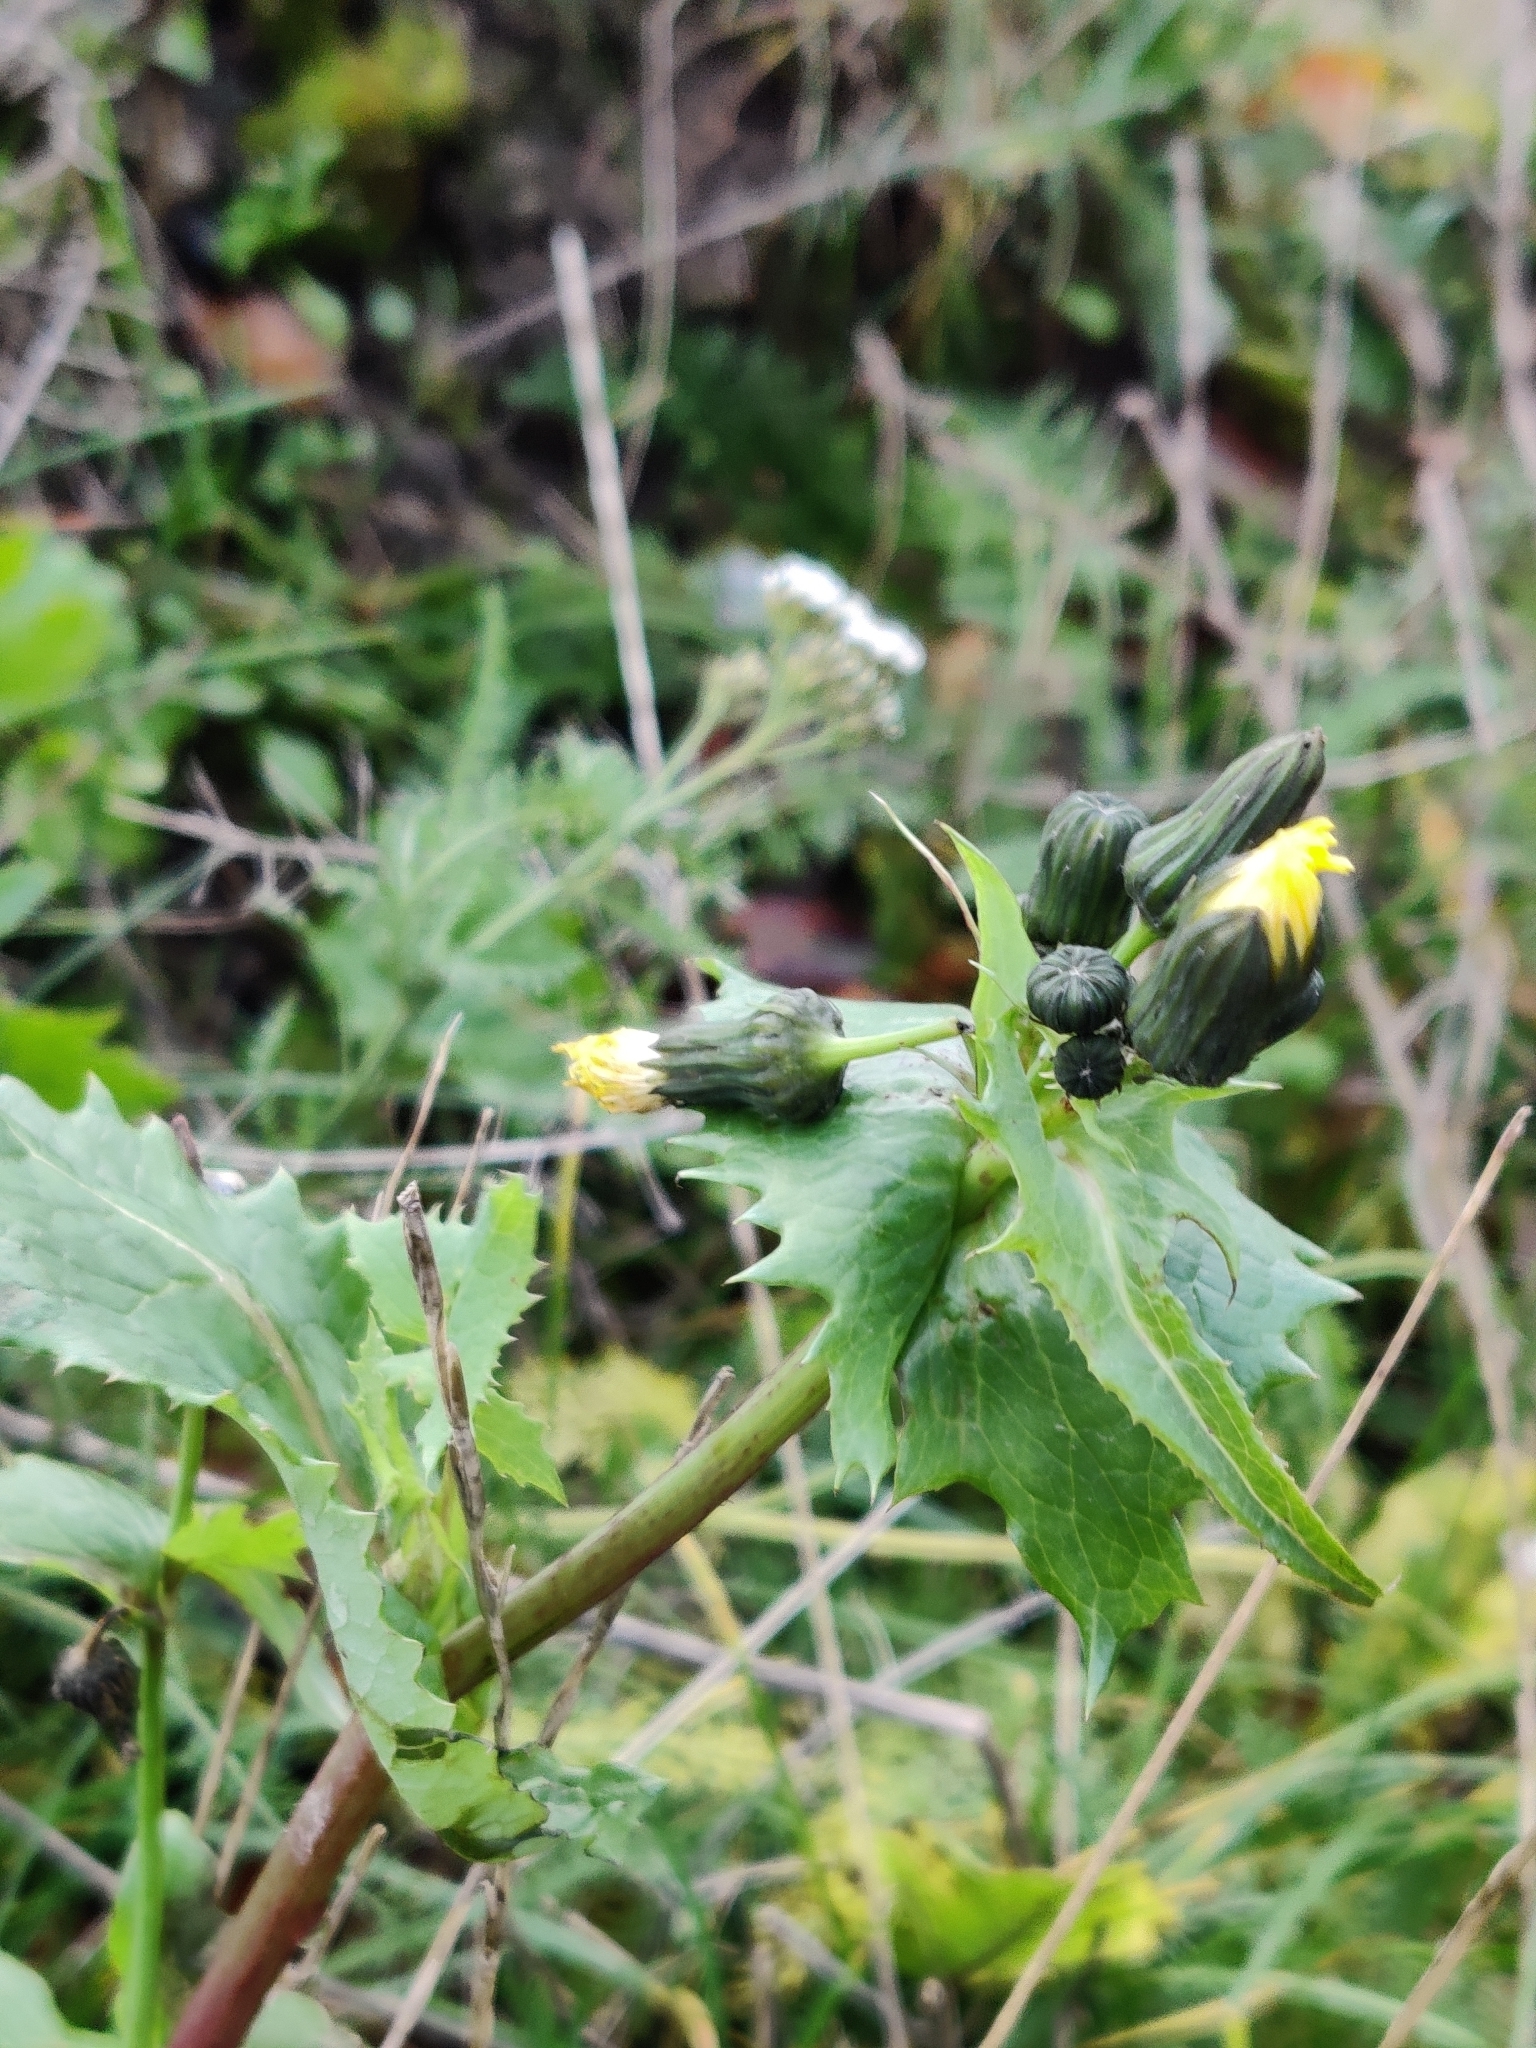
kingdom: Plantae
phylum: Tracheophyta
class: Magnoliopsida
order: Asterales
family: Asteraceae
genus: Sonchus
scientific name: Sonchus asper
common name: Prickly sow-thistle
